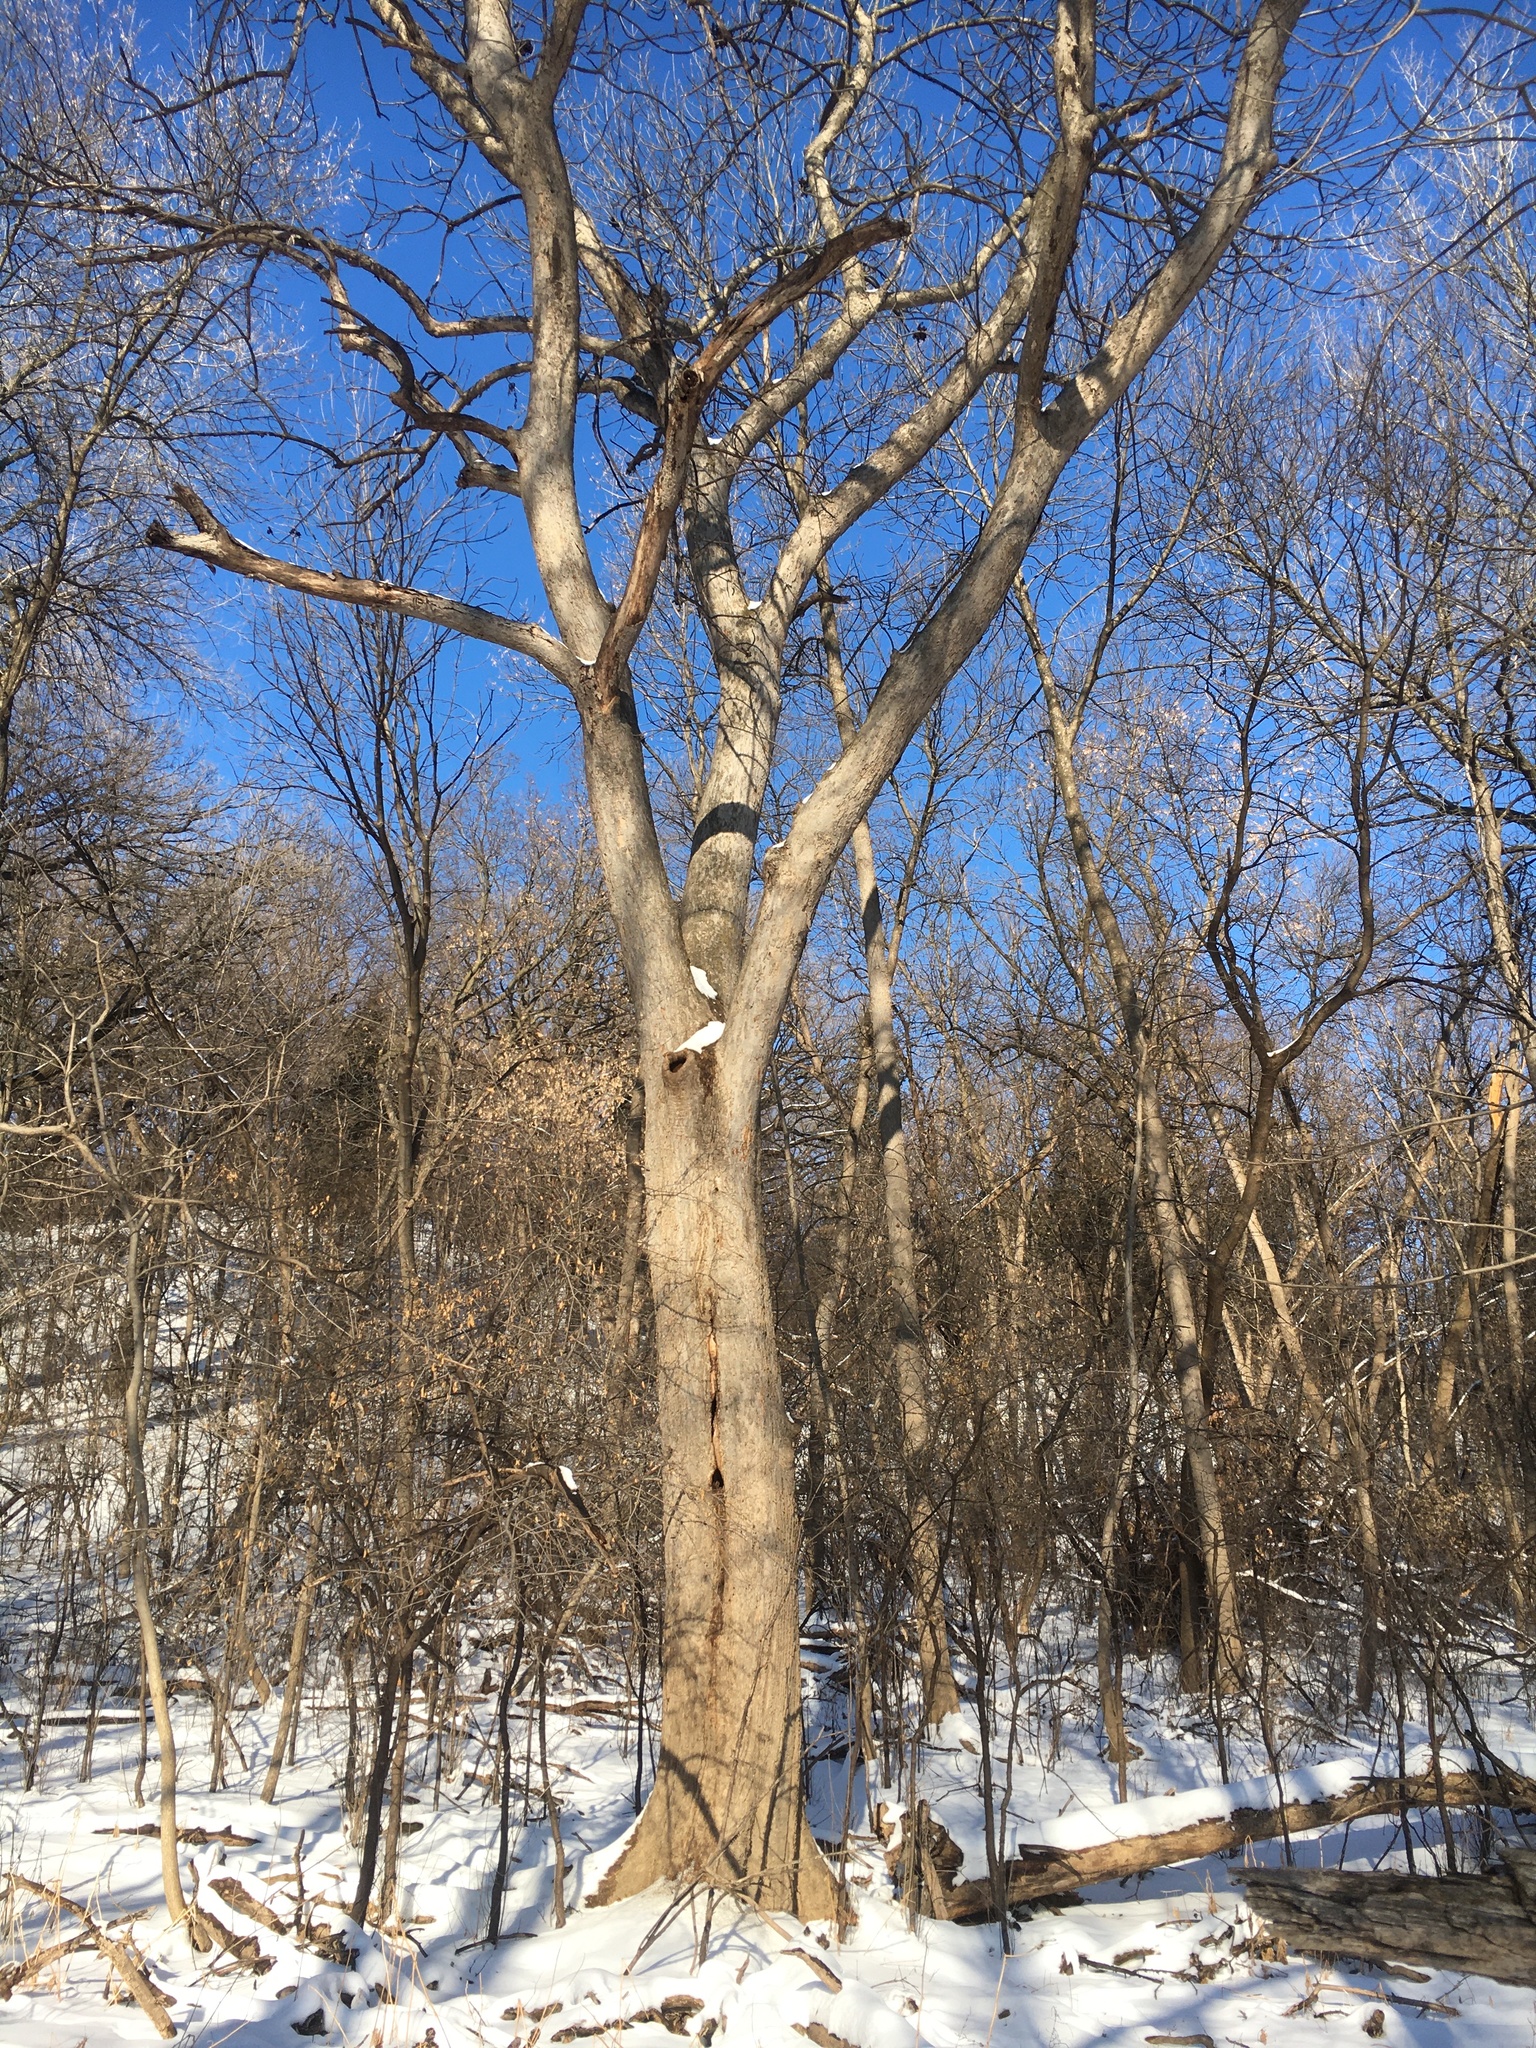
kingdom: Plantae
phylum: Tracheophyta
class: Magnoliopsida
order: Lamiales
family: Oleaceae
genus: Fraxinus
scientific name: Fraxinus nigra
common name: Black ash
